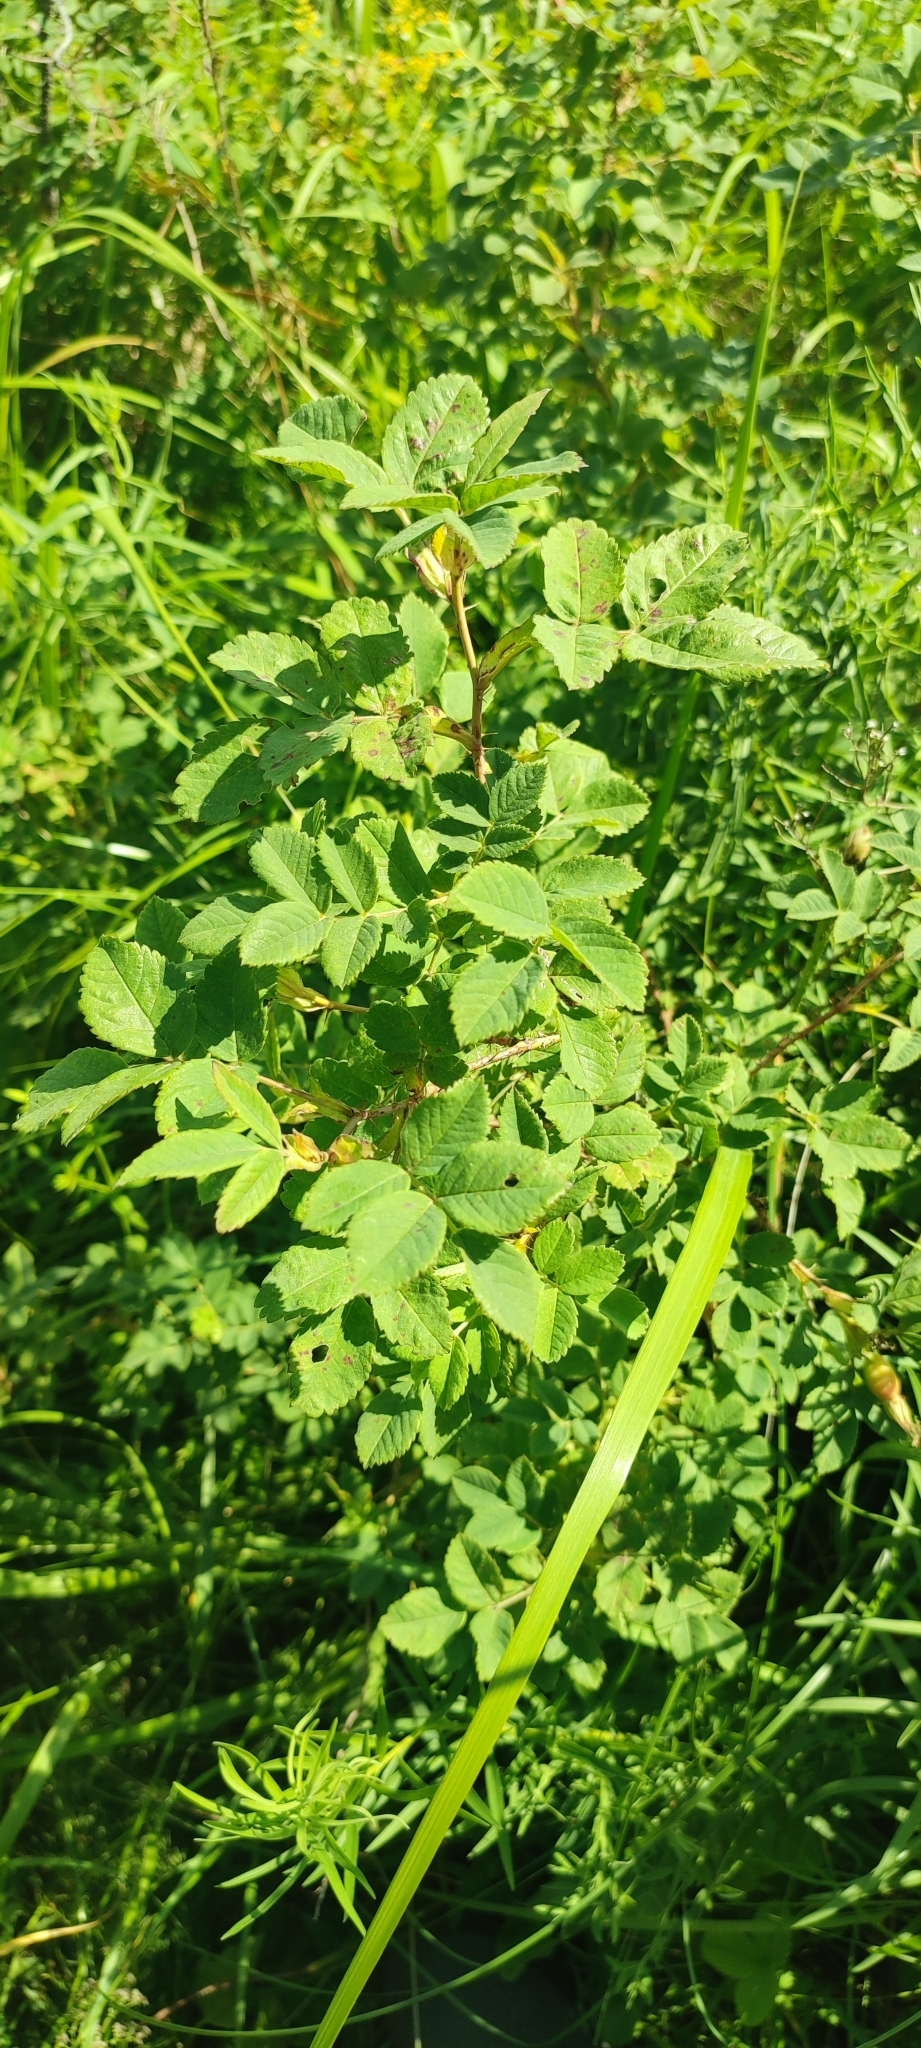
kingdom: Plantae
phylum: Tracheophyta
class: Magnoliopsida
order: Rosales
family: Rosaceae
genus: Rosa
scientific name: Rosa acicularis
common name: Prickly rose
